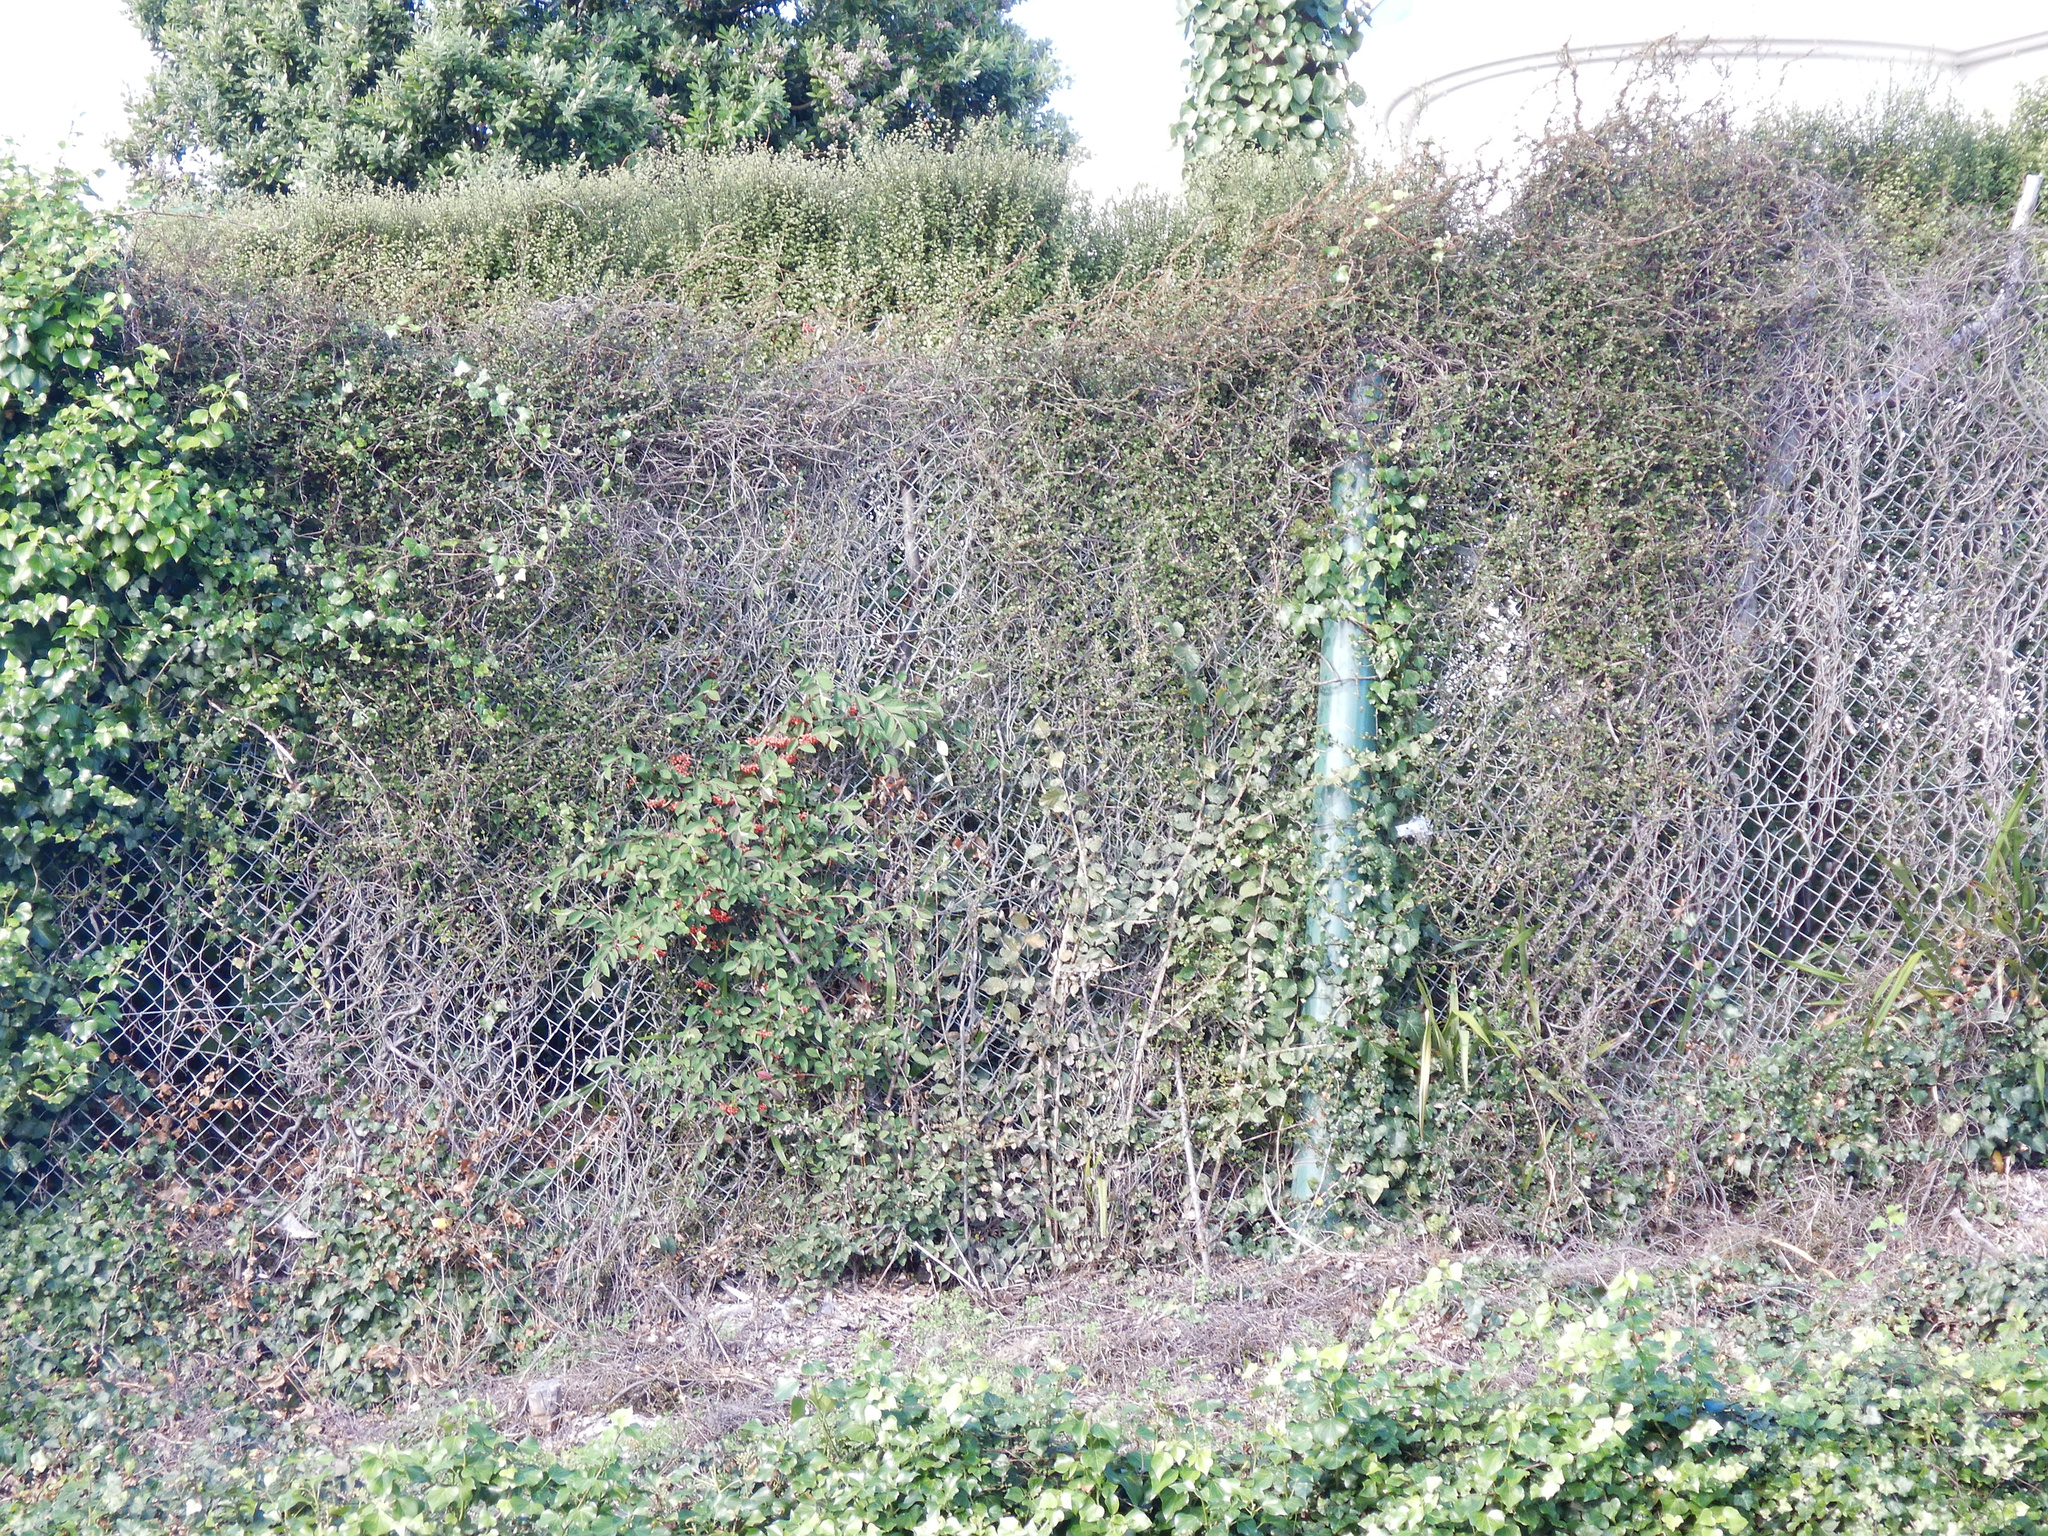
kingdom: Plantae
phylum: Tracheophyta
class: Magnoliopsida
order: Caryophyllales
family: Polygonaceae
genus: Muehlenbeckia
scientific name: Muehlenbeckia complexa
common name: Wireplant
